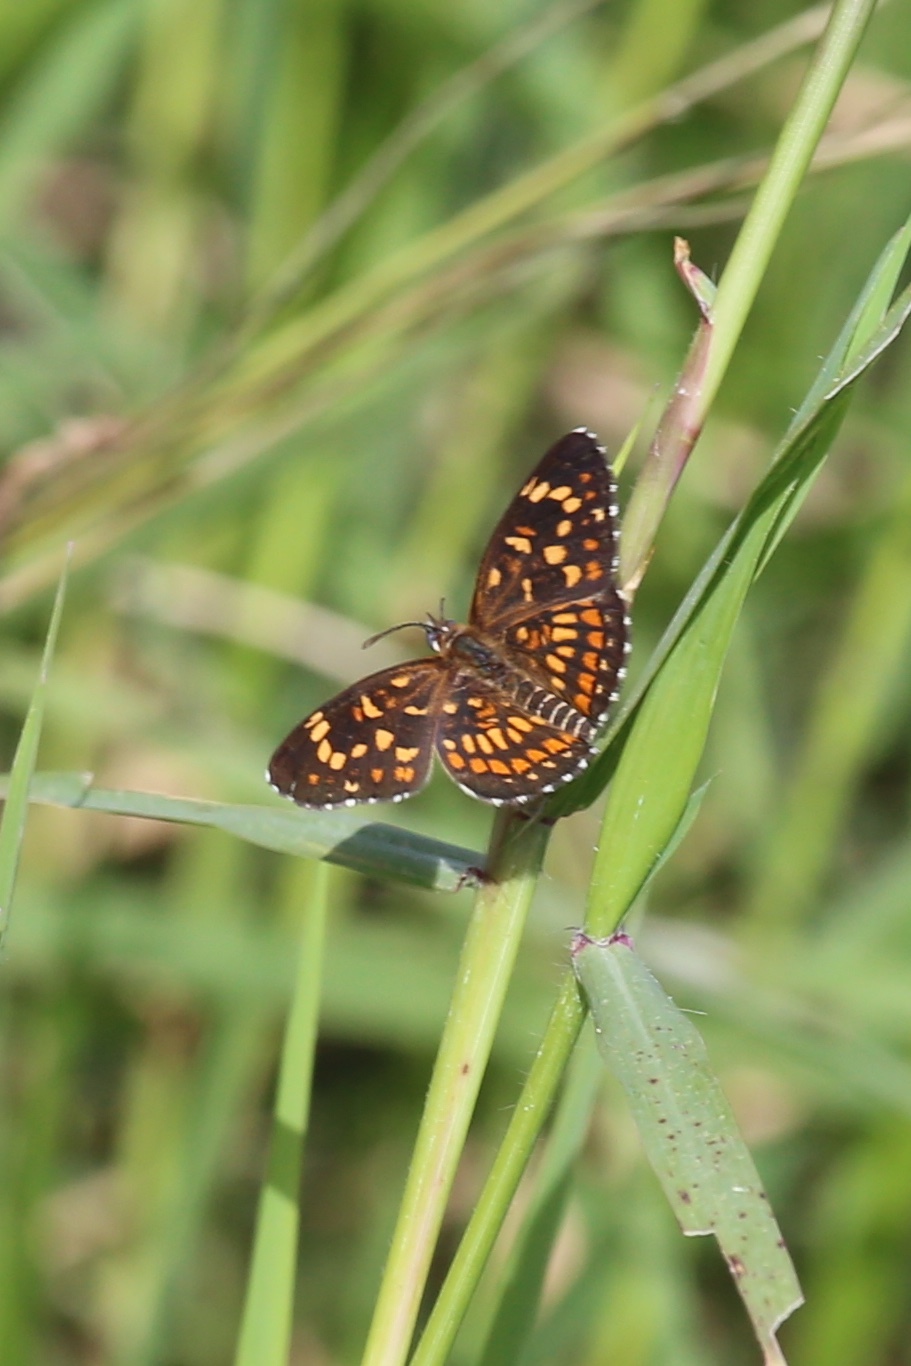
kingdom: Animalia
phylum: Arthropoda
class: Insecta
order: Lepidoptera
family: Nymphalidae
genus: Thessalia
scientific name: Thessalia theona
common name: Nymphalid moth
